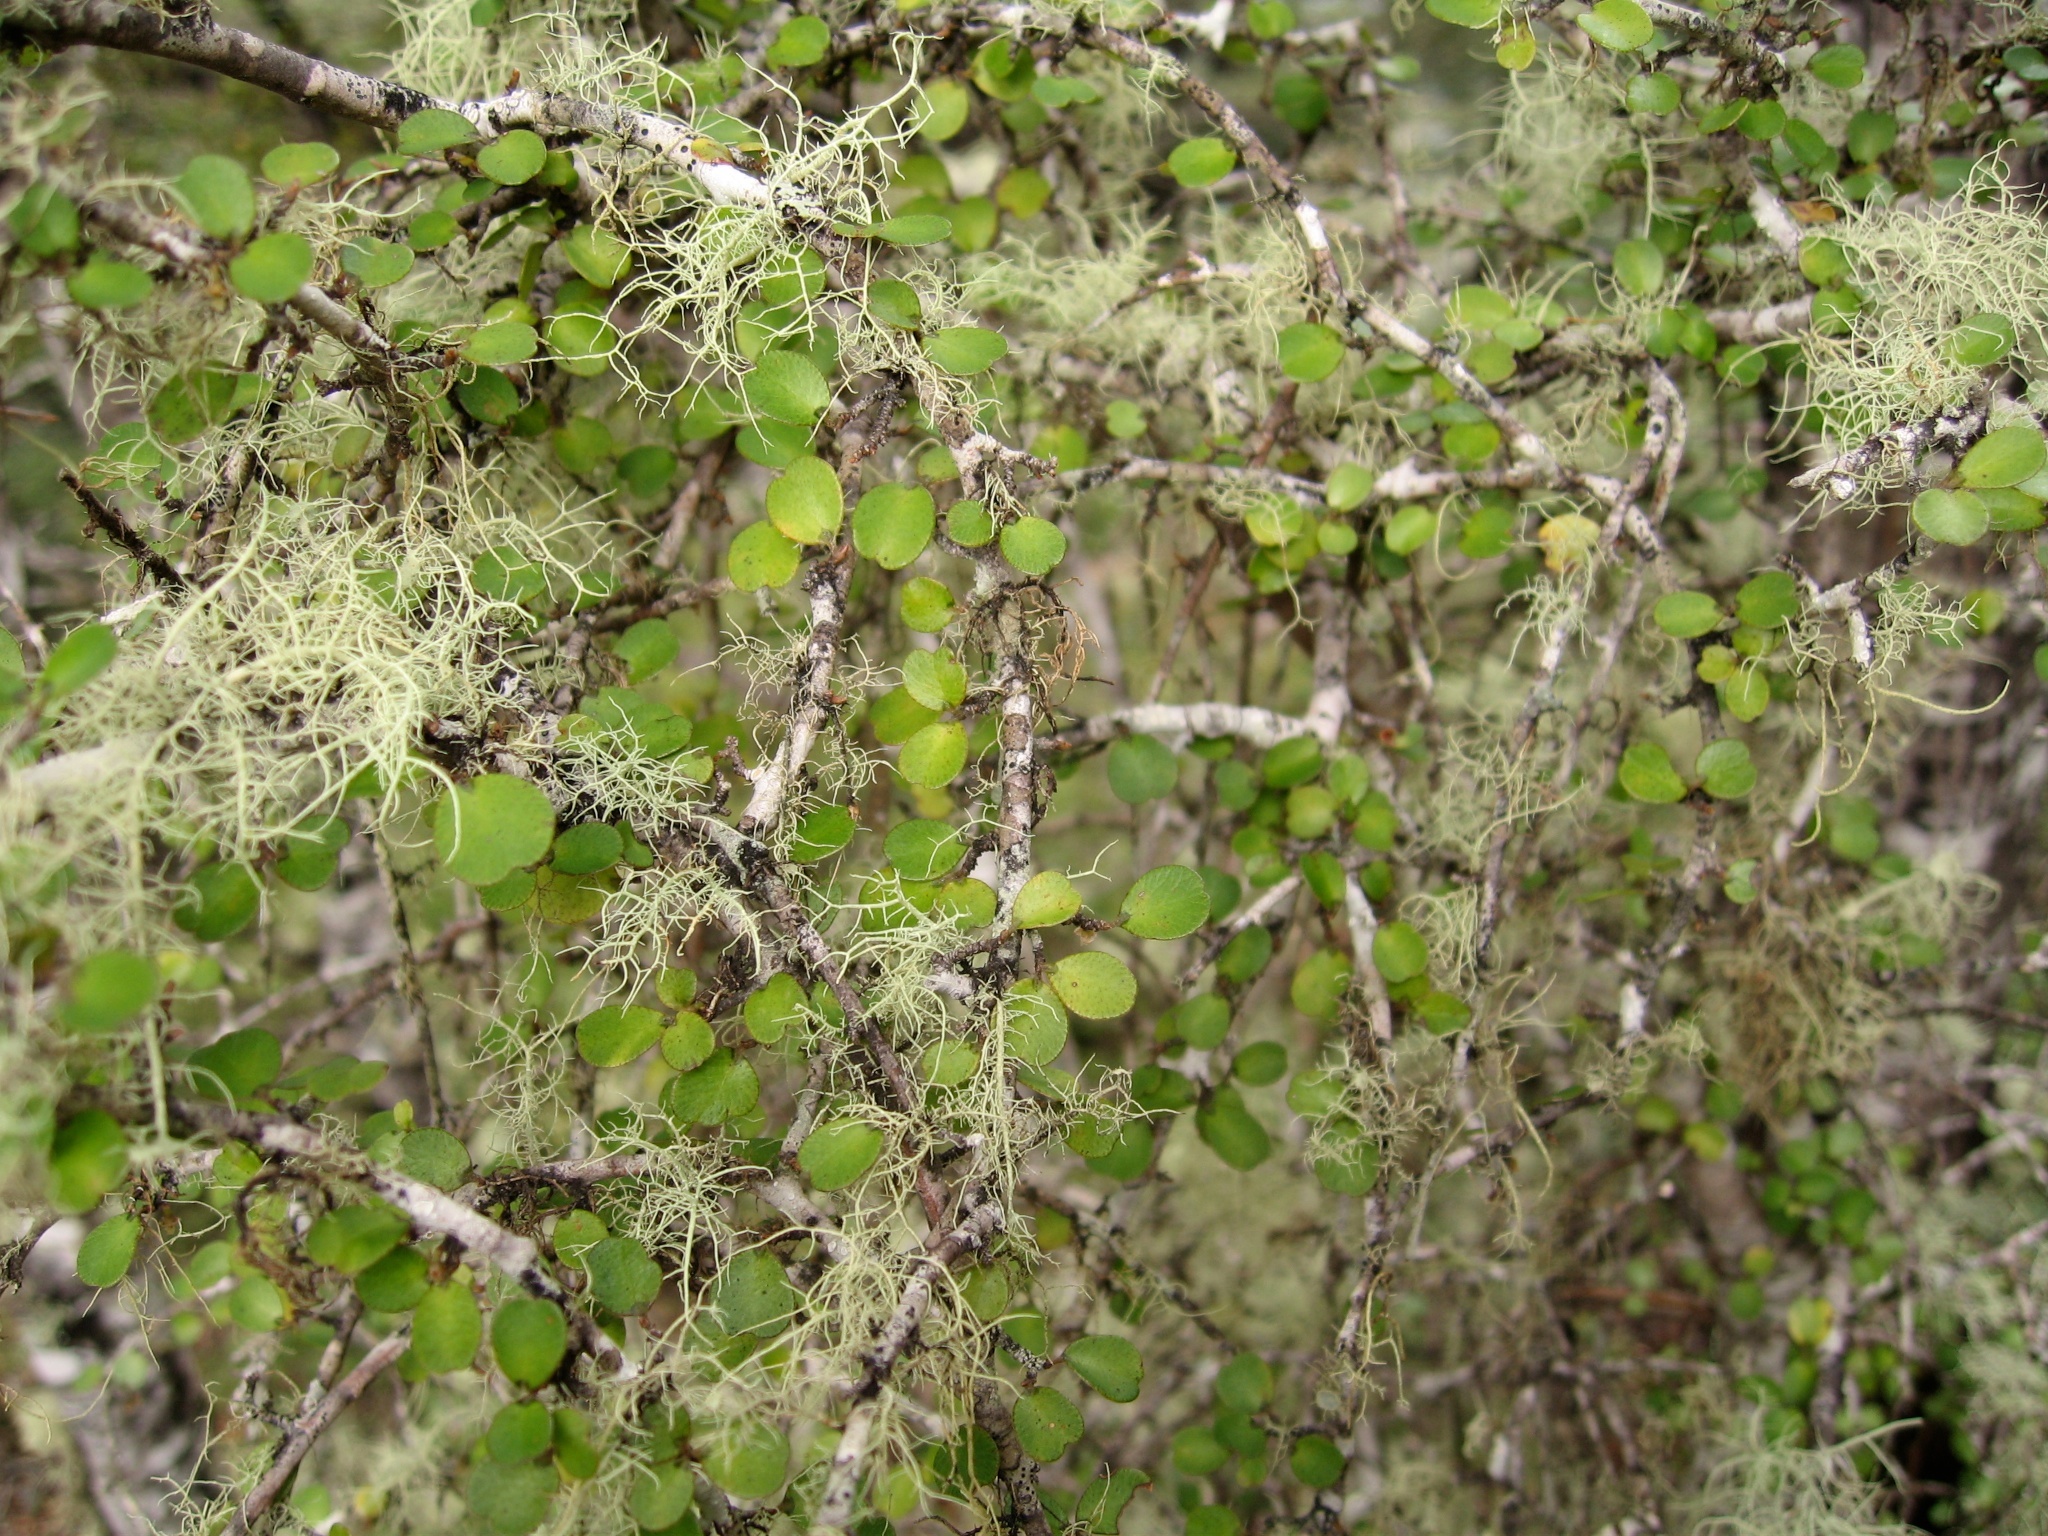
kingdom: Plantae
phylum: Tracheophyta
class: Magnoliopsida
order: Ericales
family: Primulaceae
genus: Myrsine
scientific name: Myrsine divaricata
